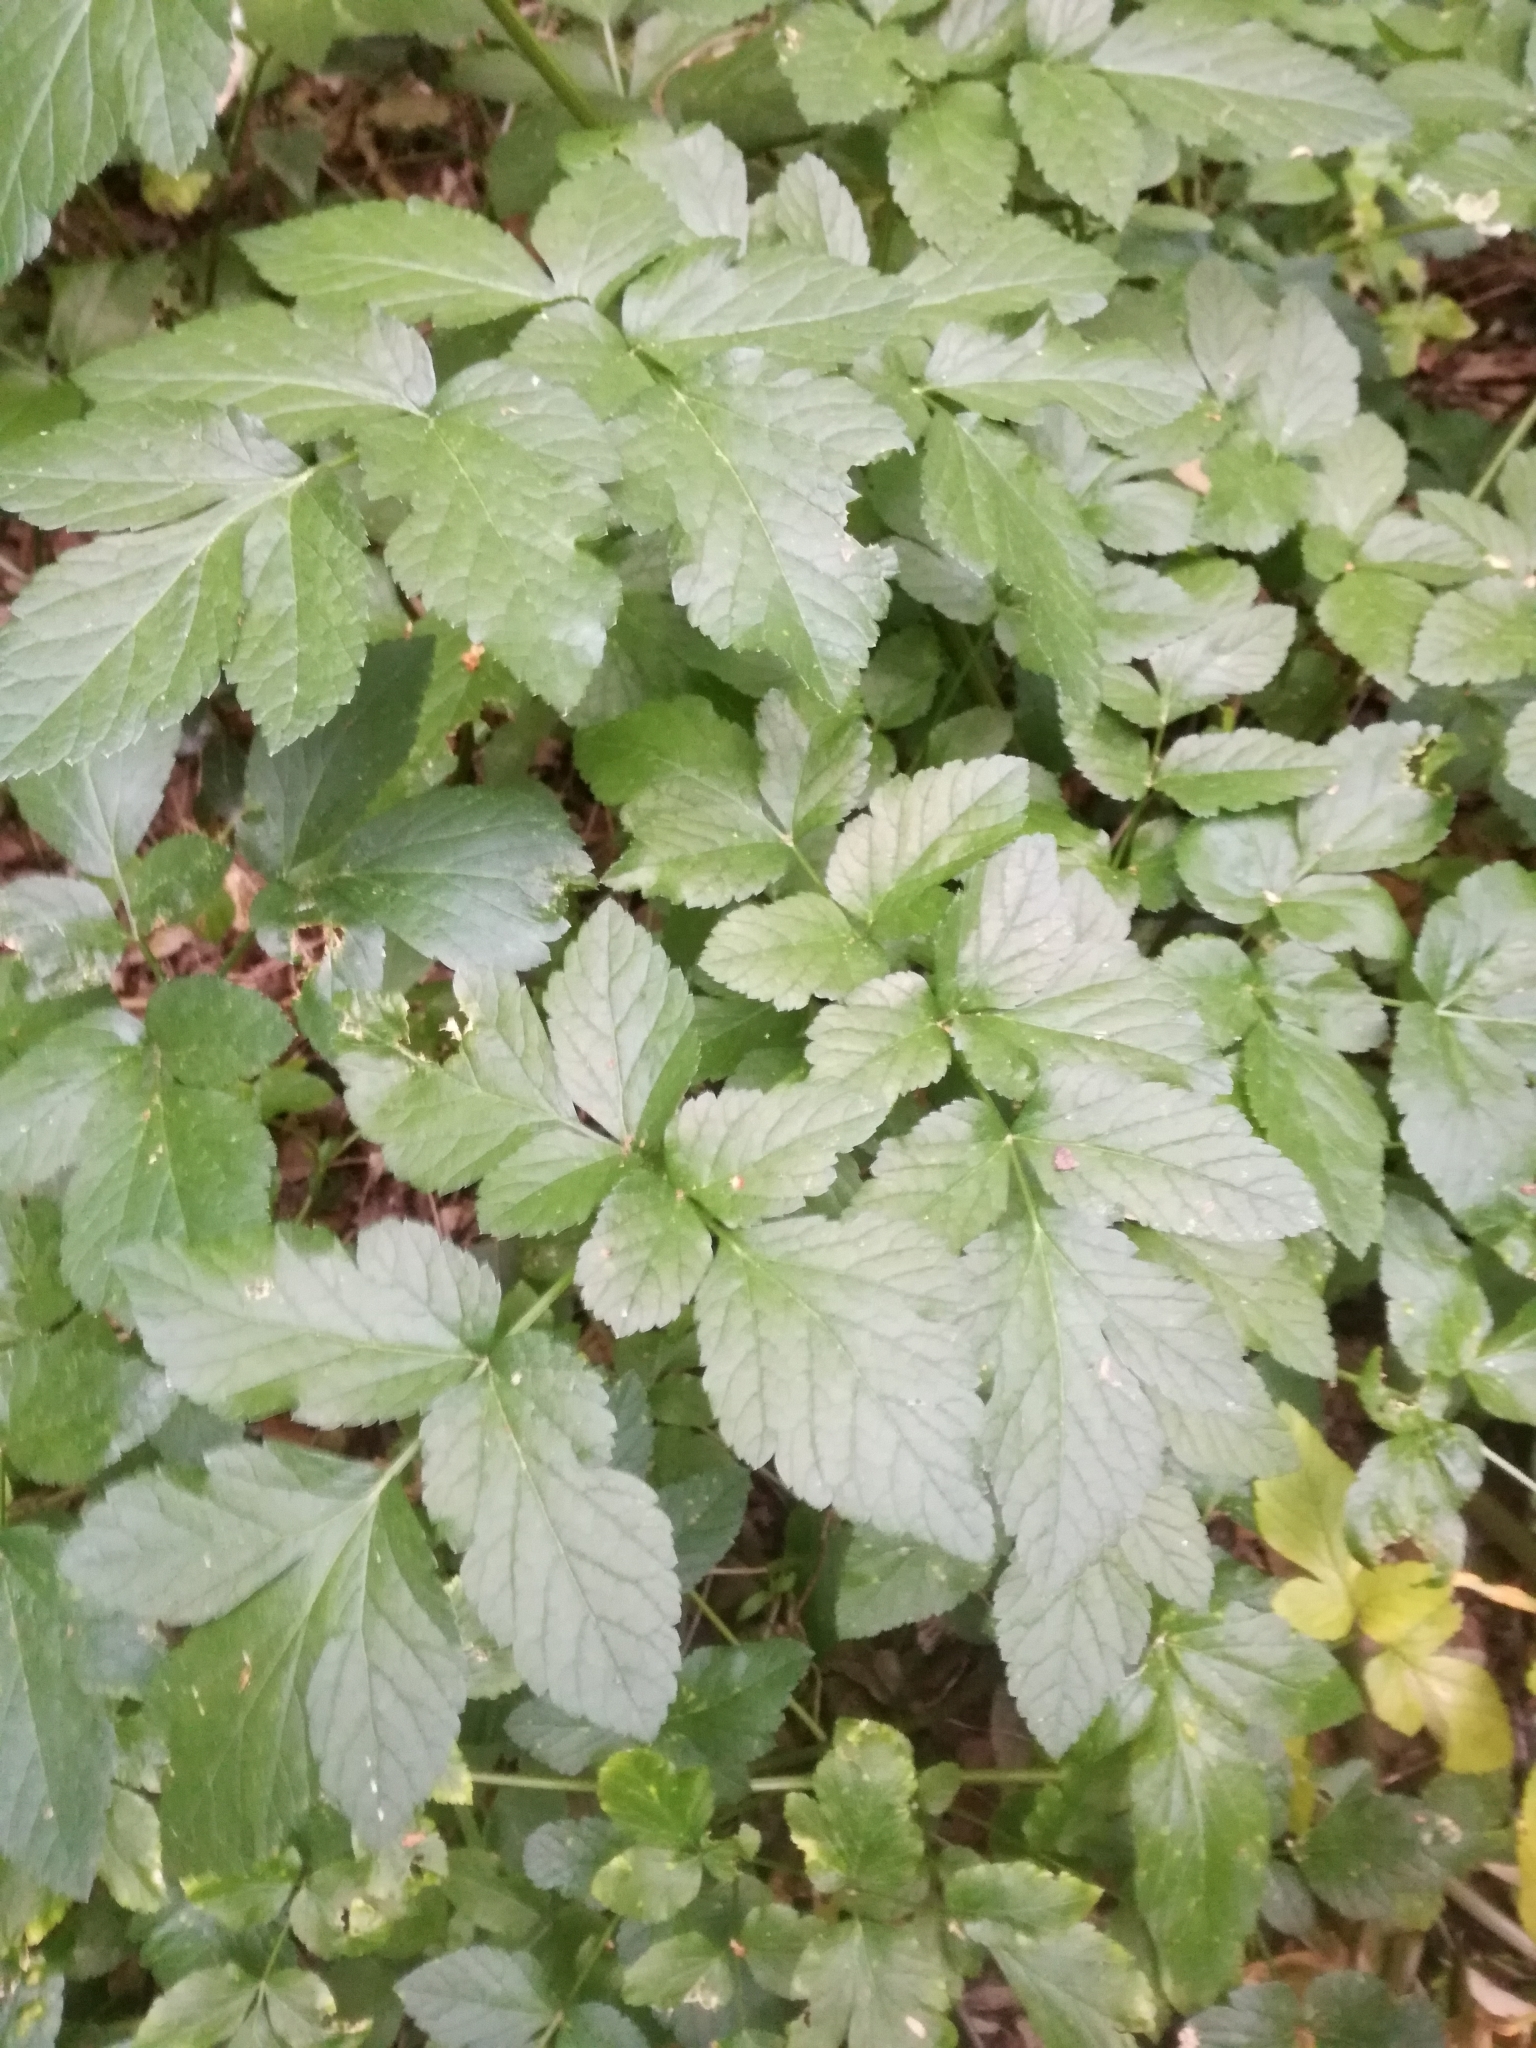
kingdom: Plantae
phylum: Tracheophyta
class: Magnoliopsida
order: Apiales
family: Apiaceae
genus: Smyrnium
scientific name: Smyrnium olusatrum
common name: Alexanders
